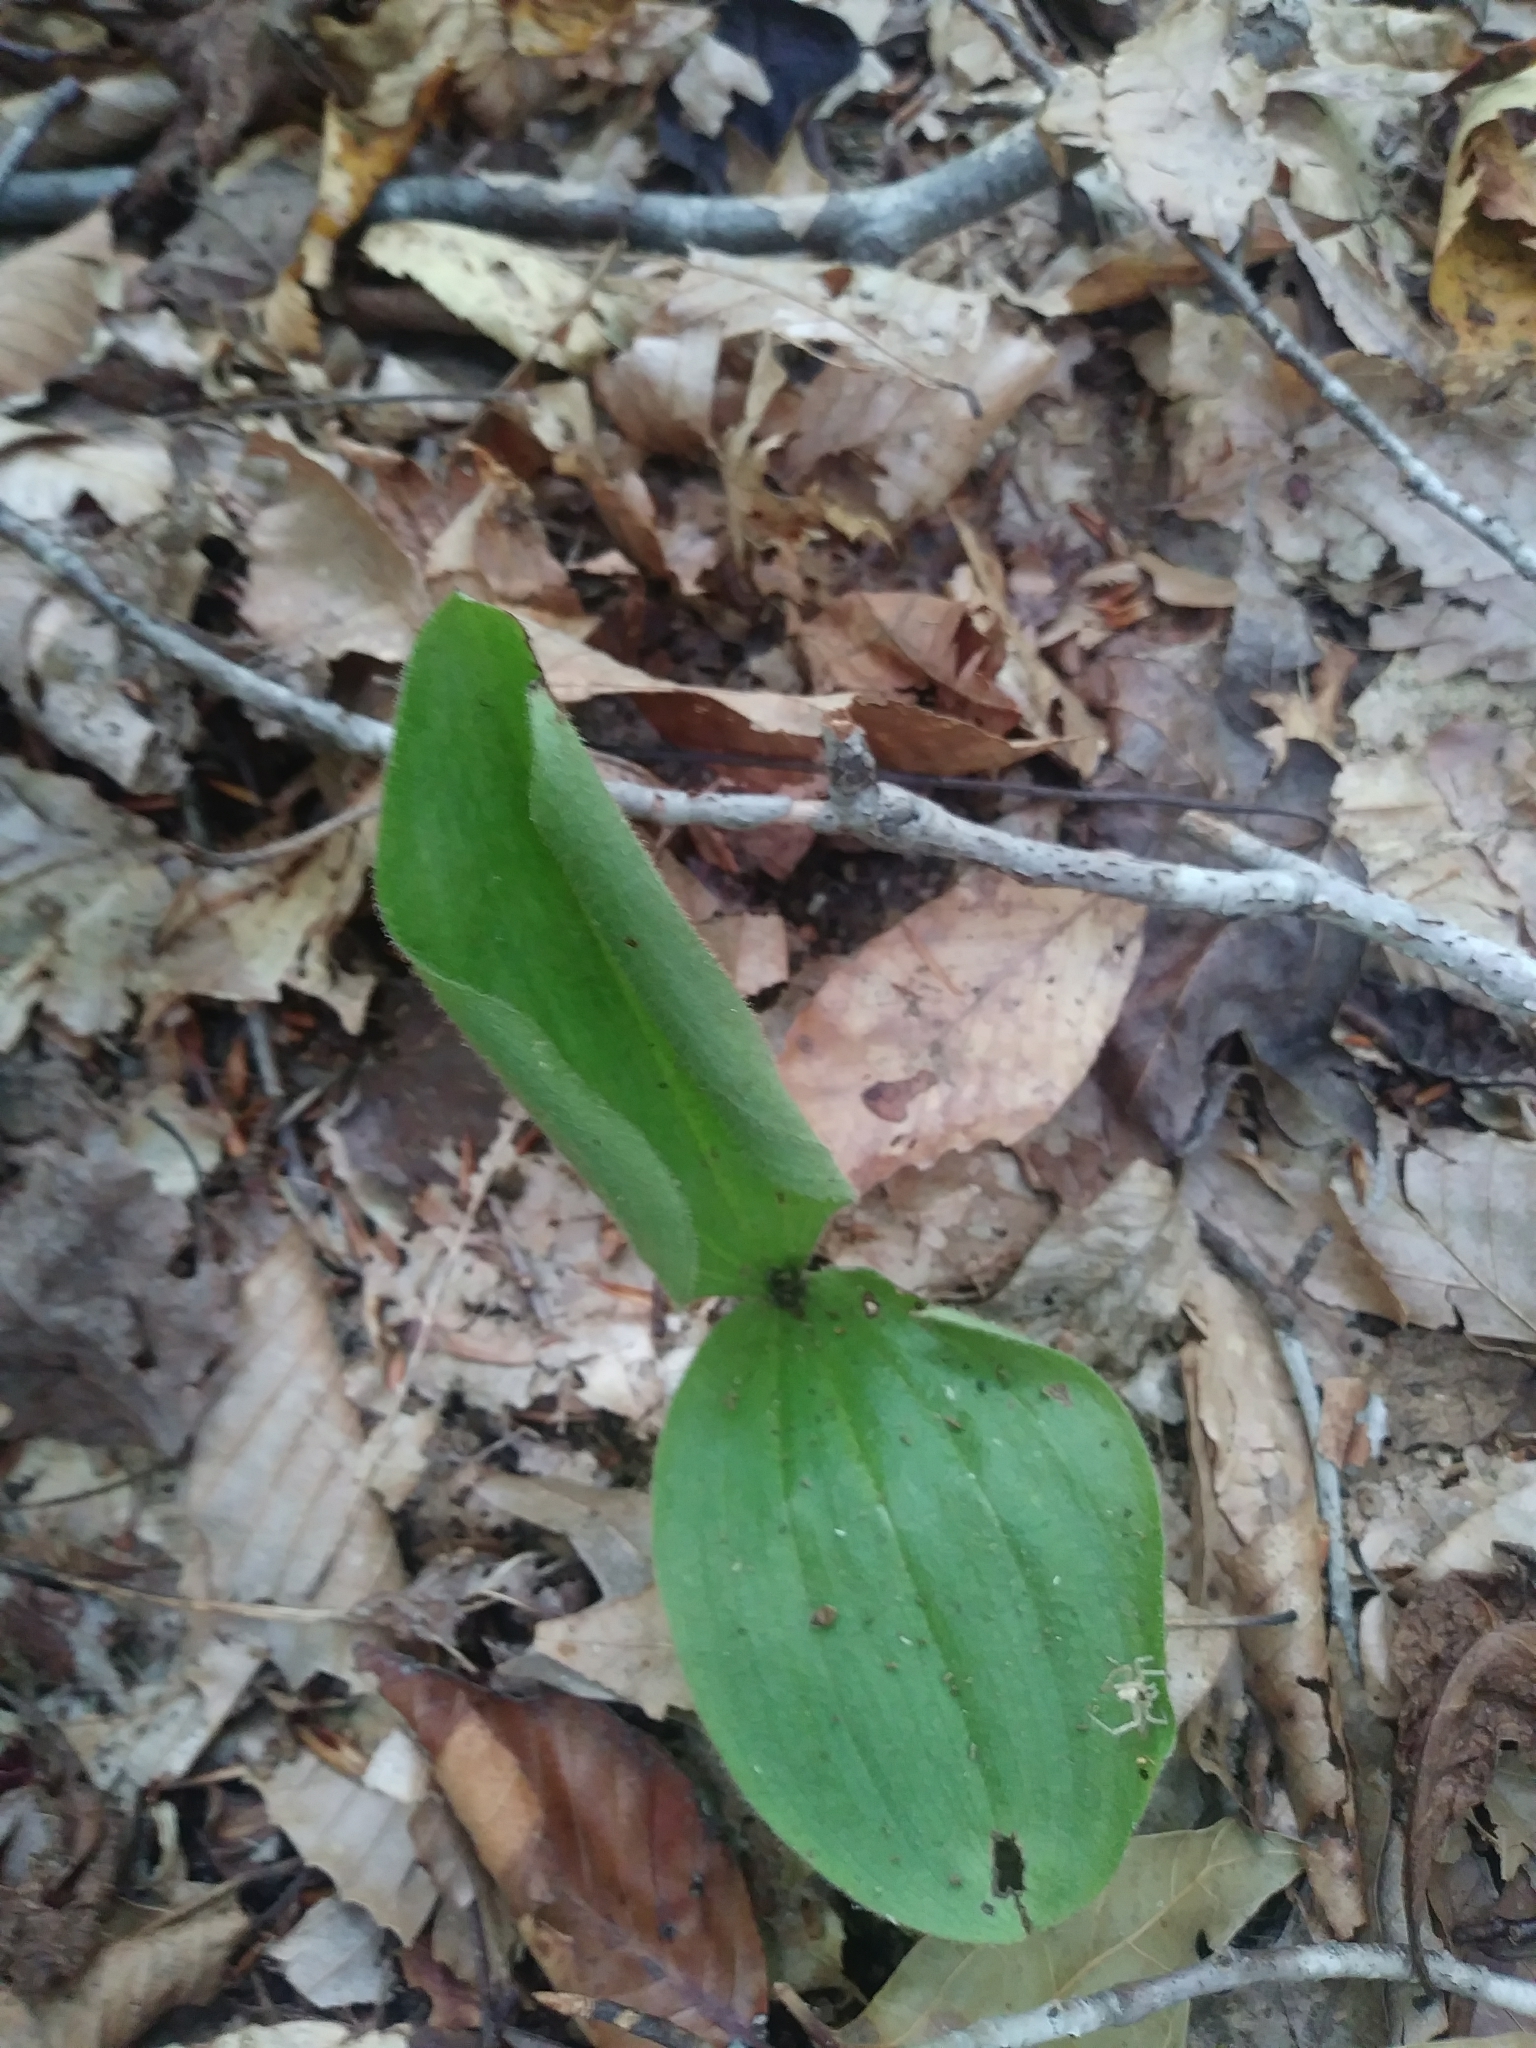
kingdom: Plantae
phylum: Tracheophyta
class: Liliopsida
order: Asparagales
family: Orchidaceae
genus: Cypripedium
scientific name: Cypripedium acaule
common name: Pink lady's-slipper
